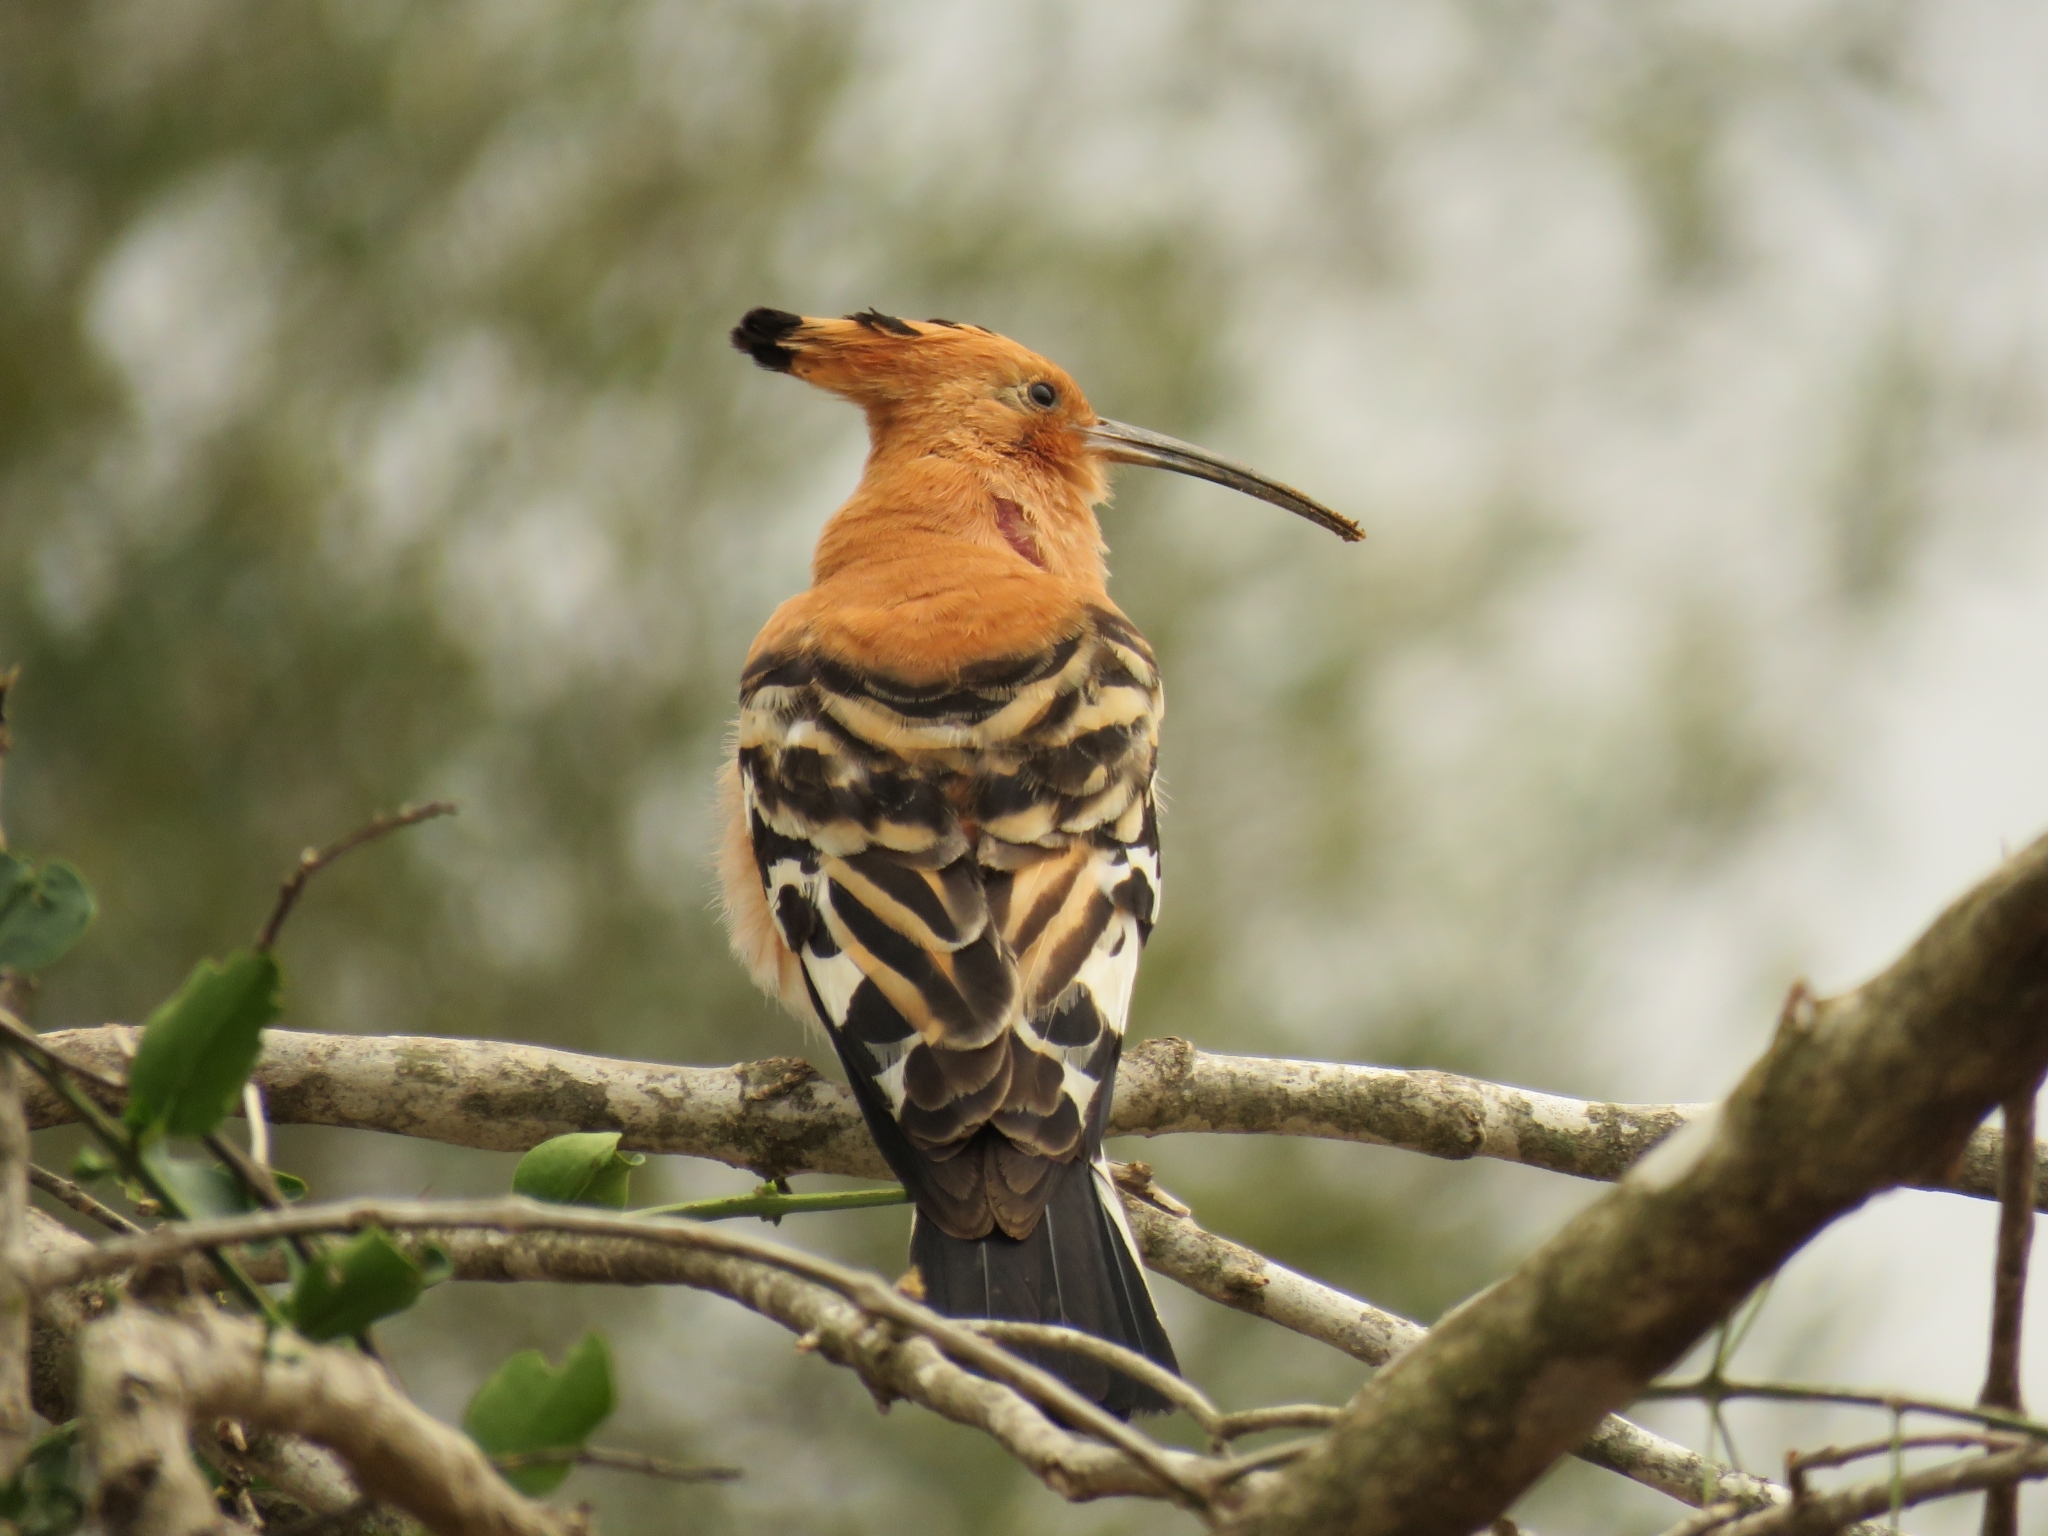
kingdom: Animalia
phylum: Chordata
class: Aves
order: Bucerotiformes
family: Upupidae
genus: Upupa
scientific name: Upupa africana
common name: African hoopoe
